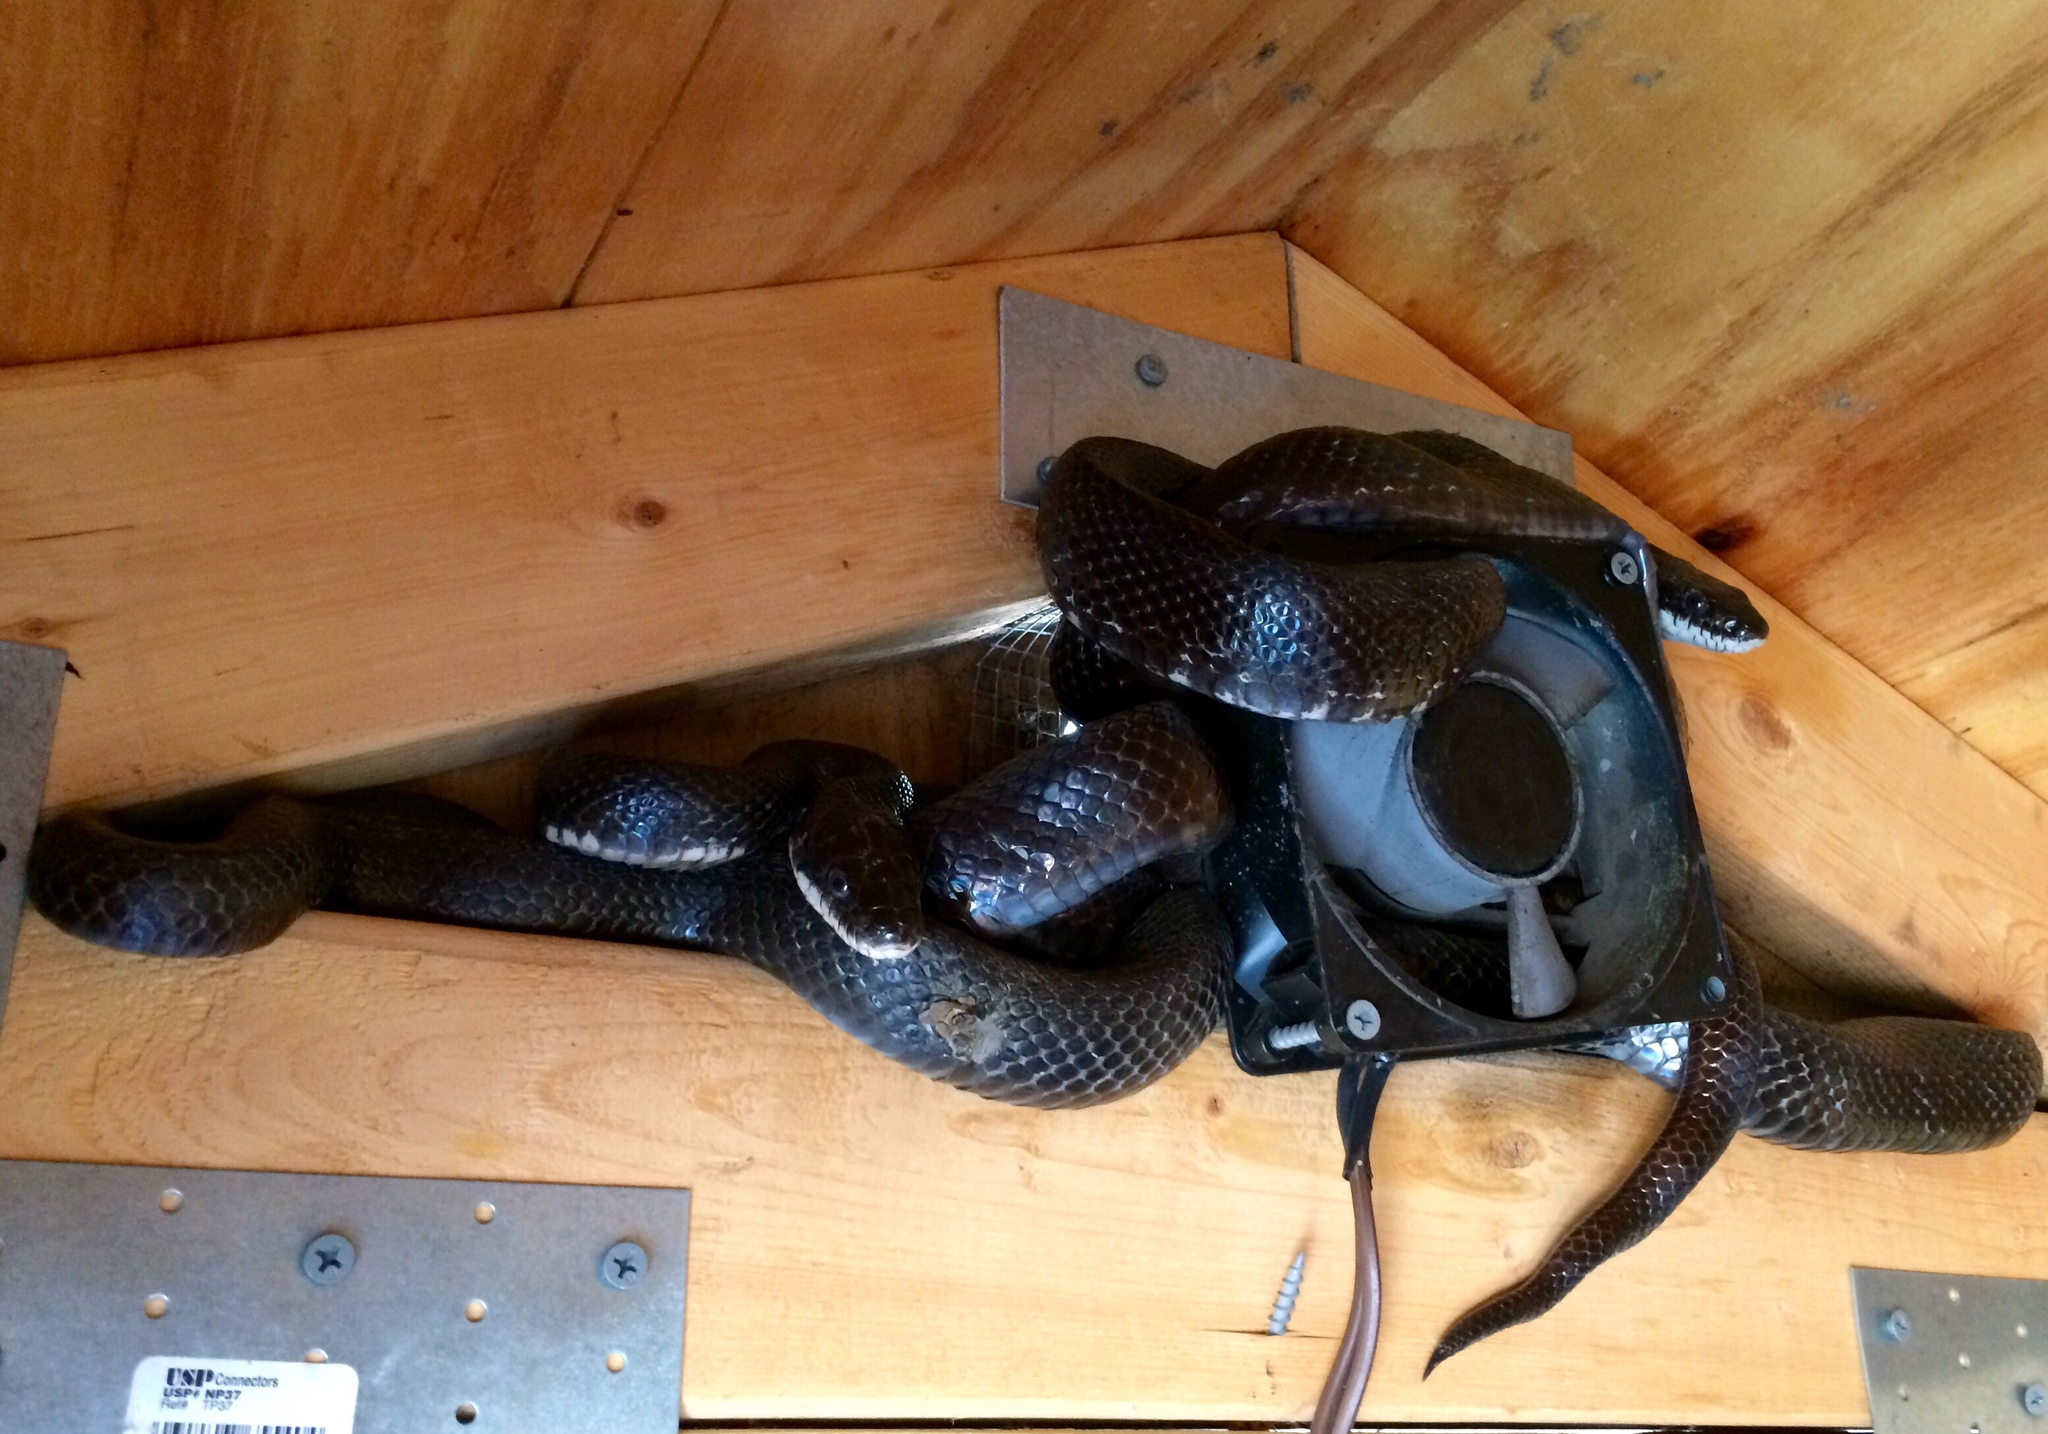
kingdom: Animalia
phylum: Chordata
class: Squamata
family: Colubridae
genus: Pantherophis
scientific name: Pantherophis alleghaniensis
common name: Eastern rat snake
